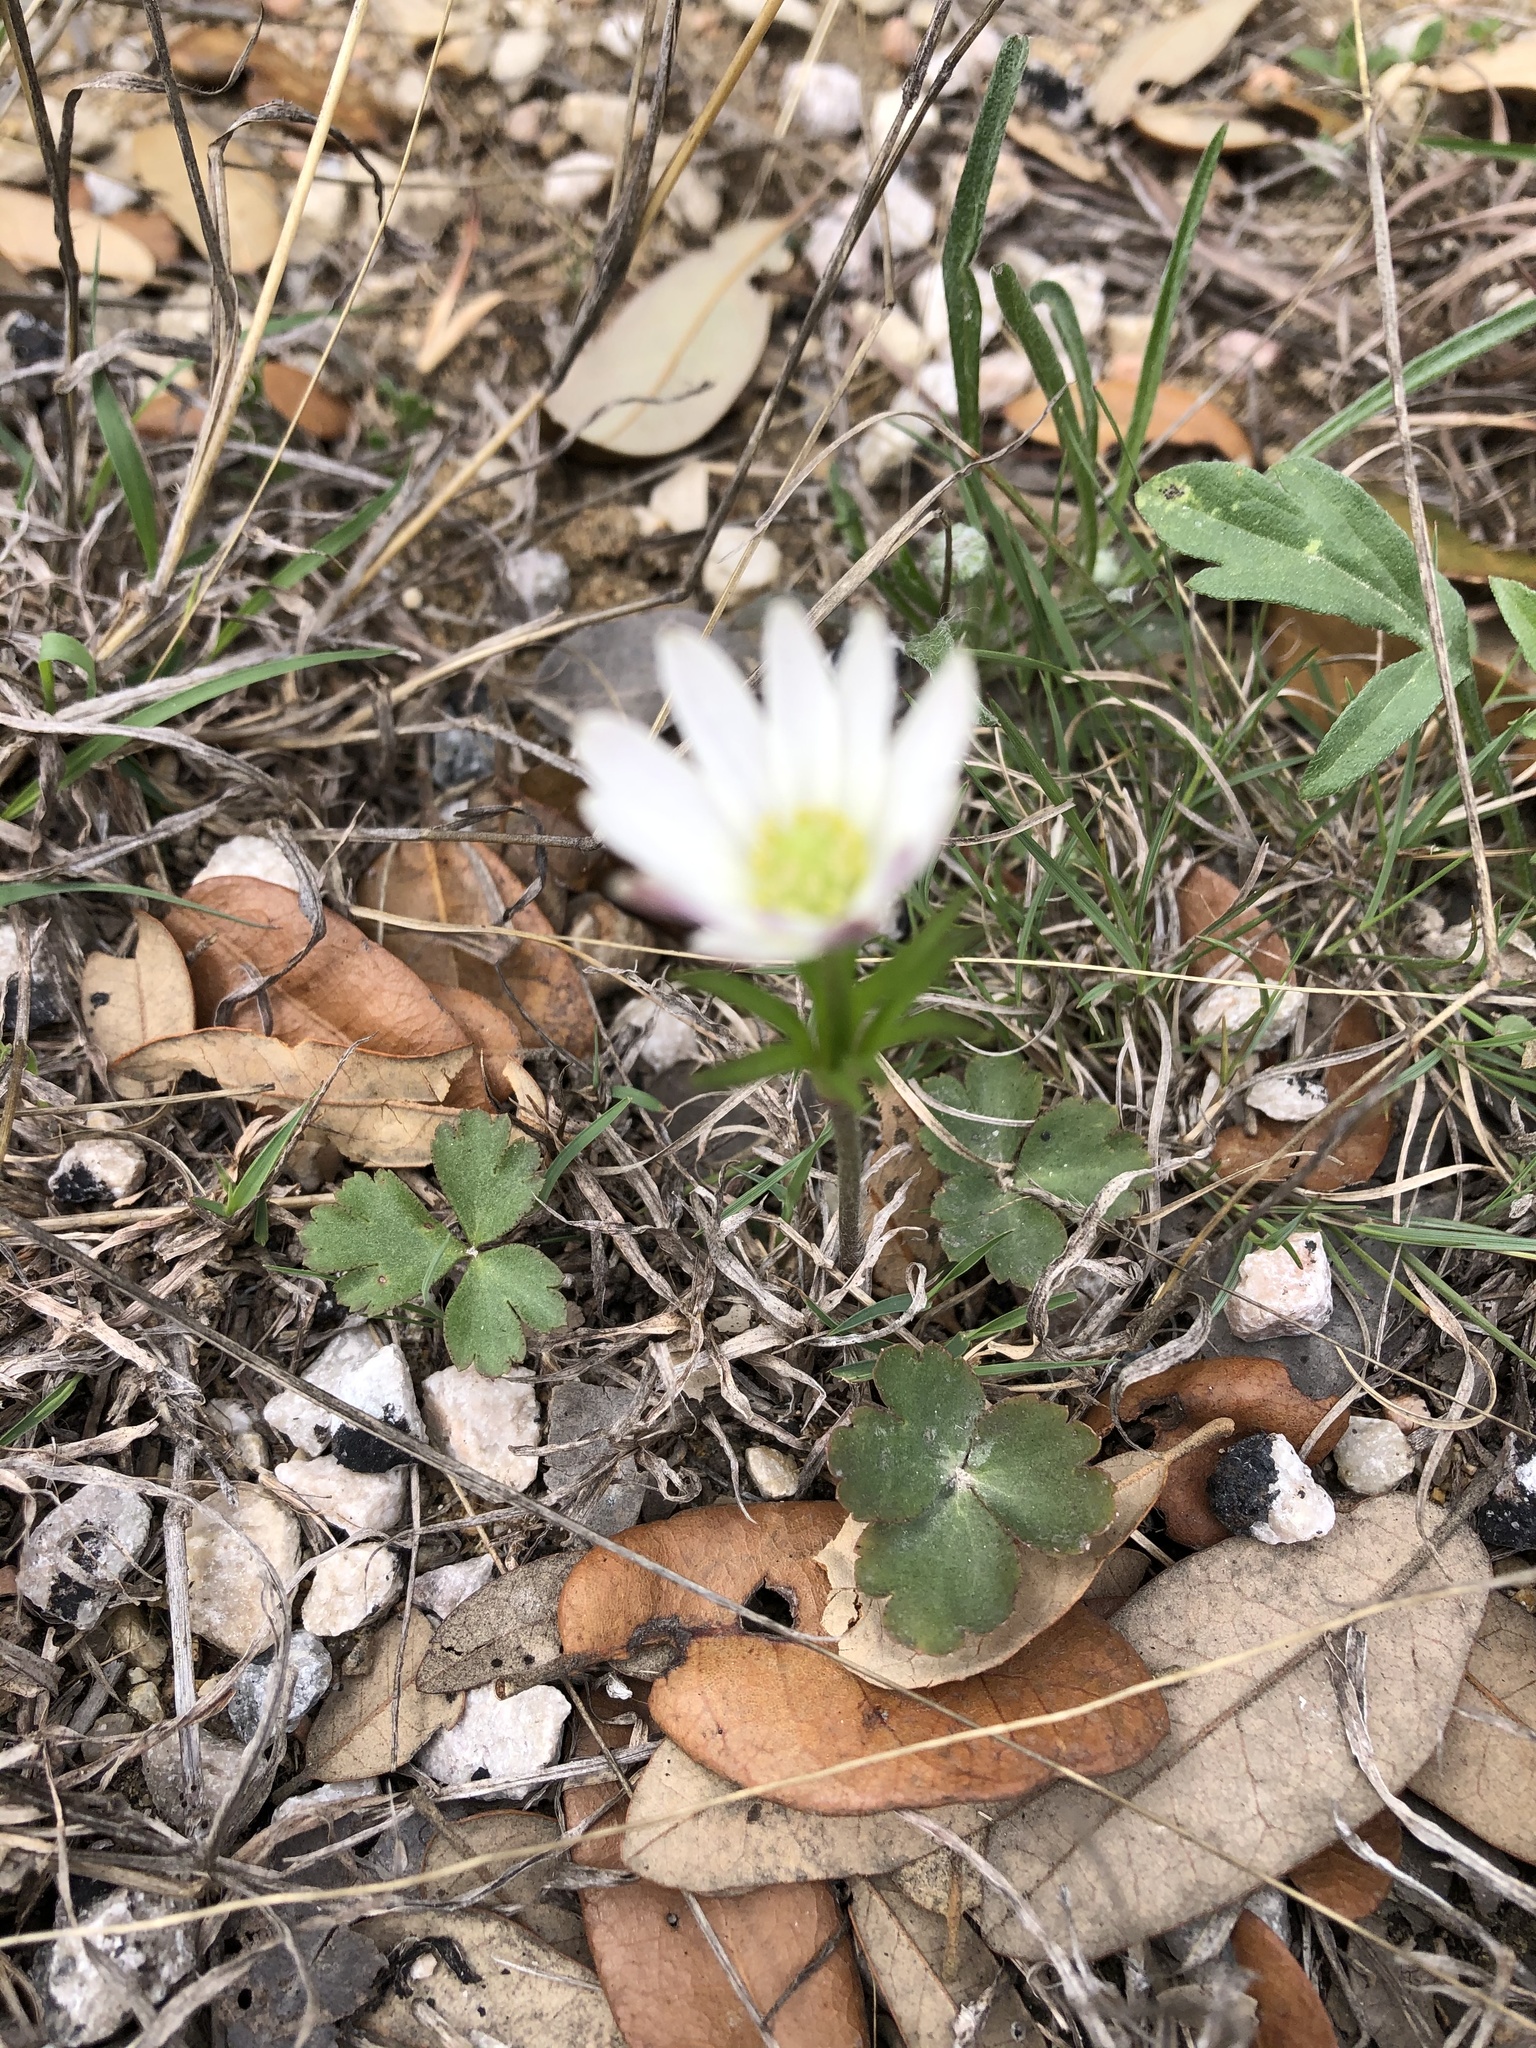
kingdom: Plantae
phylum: Tracheophyta
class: Magnoliopsida
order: Ranunculales
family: Ranunculaceae
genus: Anemone
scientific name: Anemone berlandieri
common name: Ten-petal anemone
